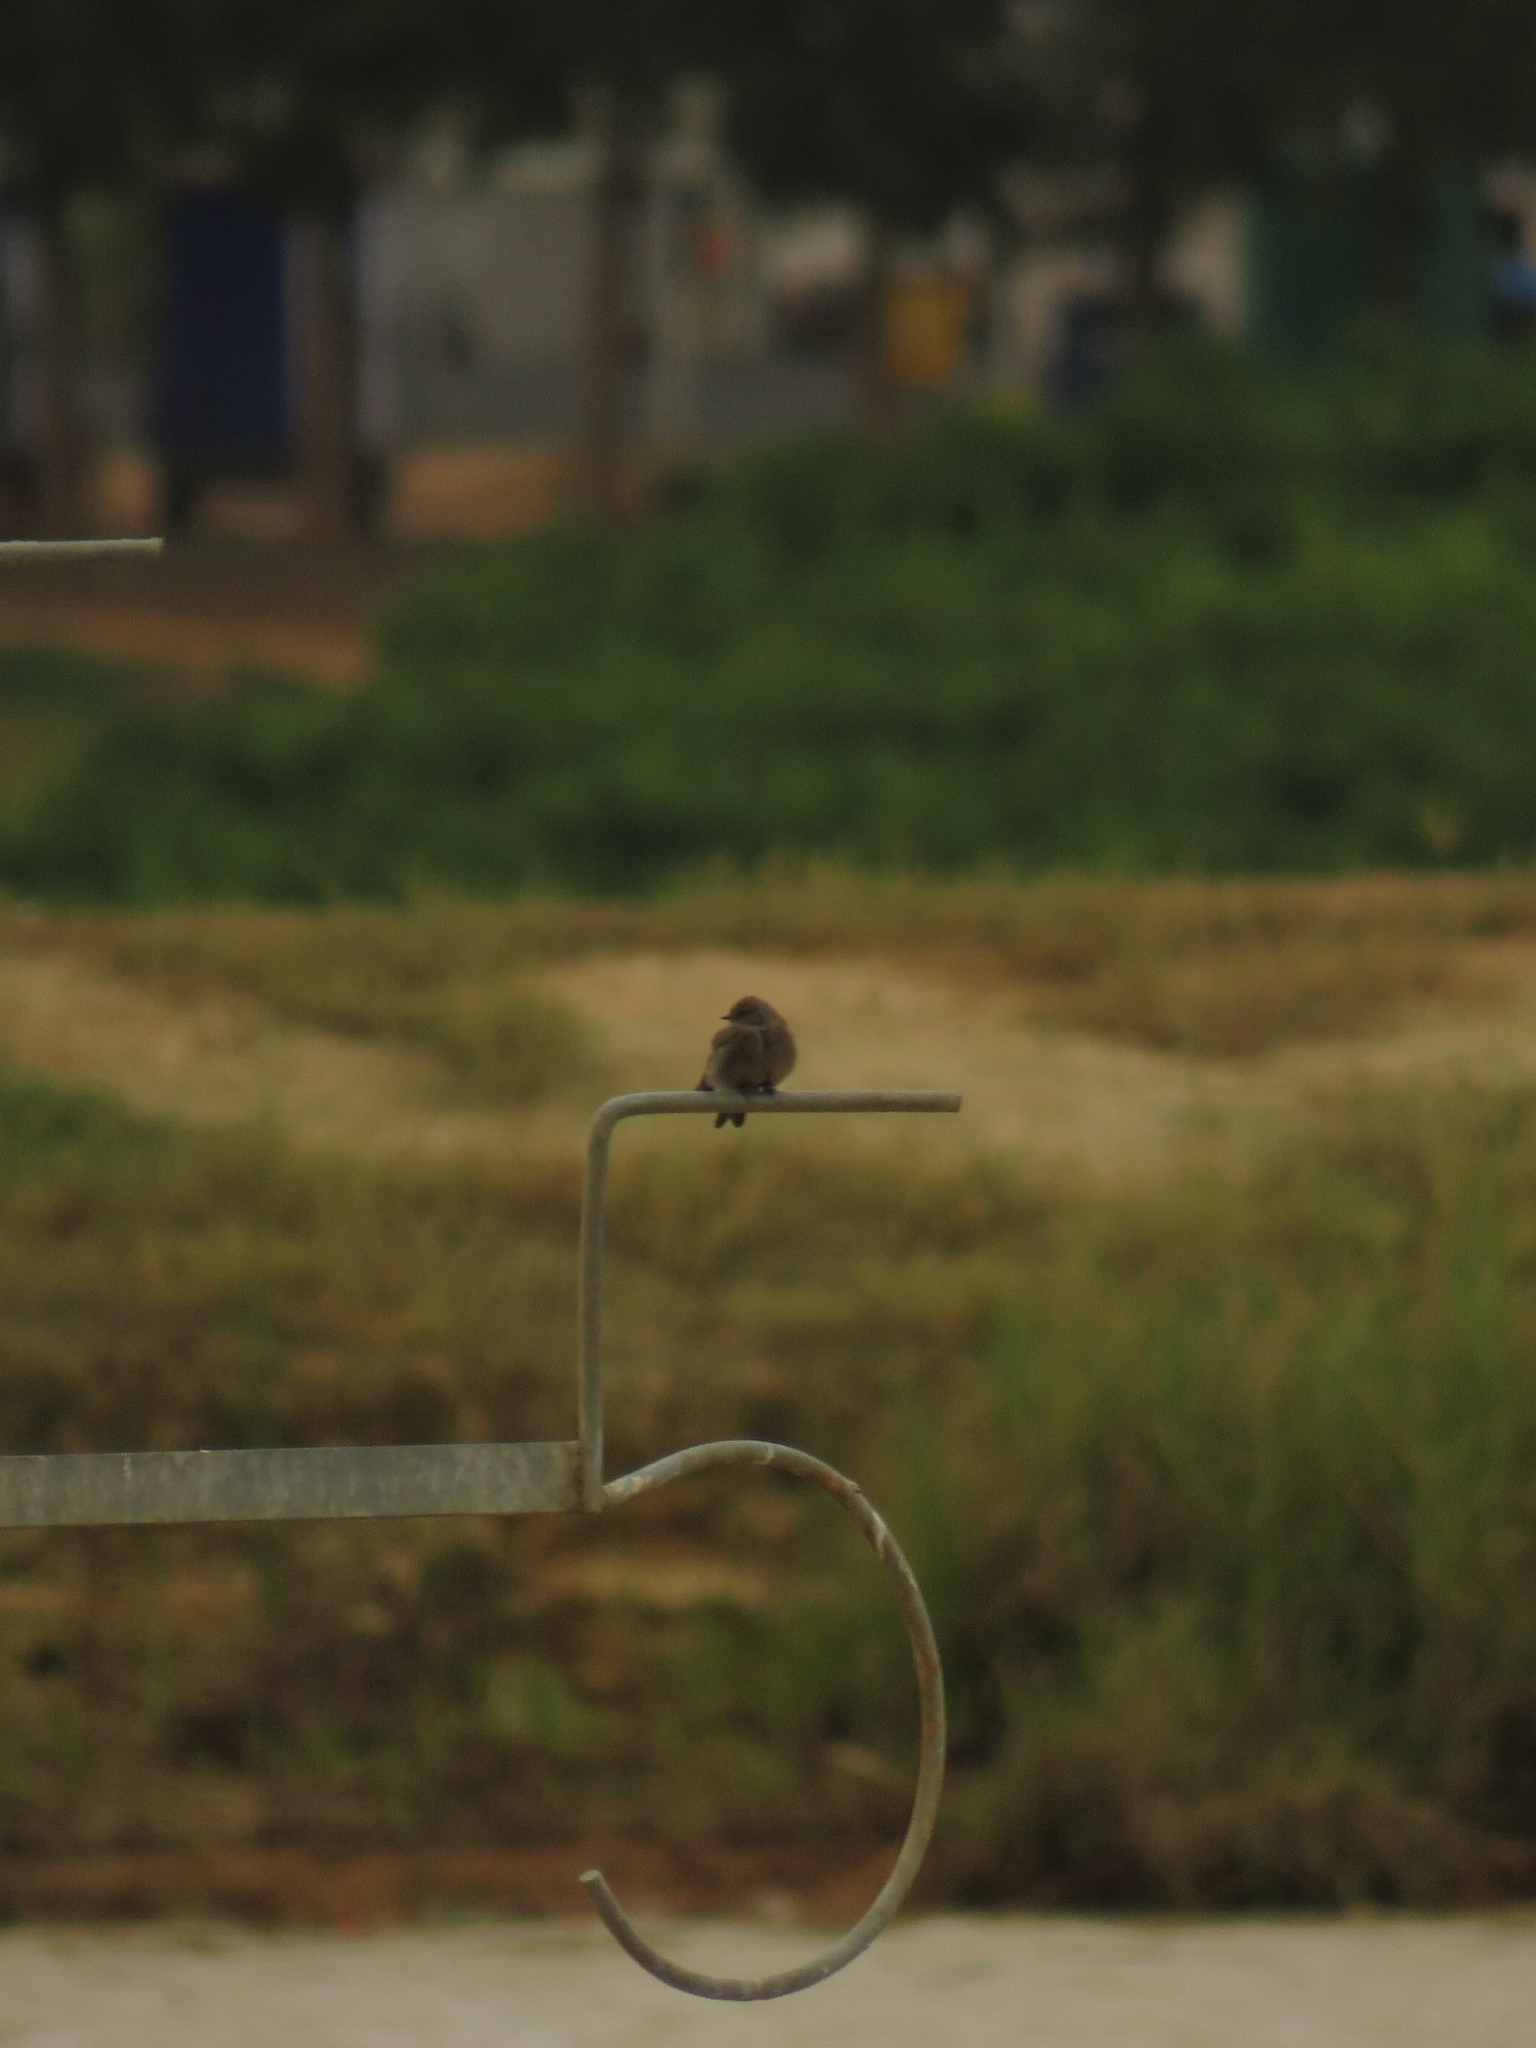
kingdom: Animalia
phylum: Chordata
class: Aves
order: Passeriformes
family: Hirundinidae
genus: Riparia
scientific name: Riparia paludicola
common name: Brown-throated martin
